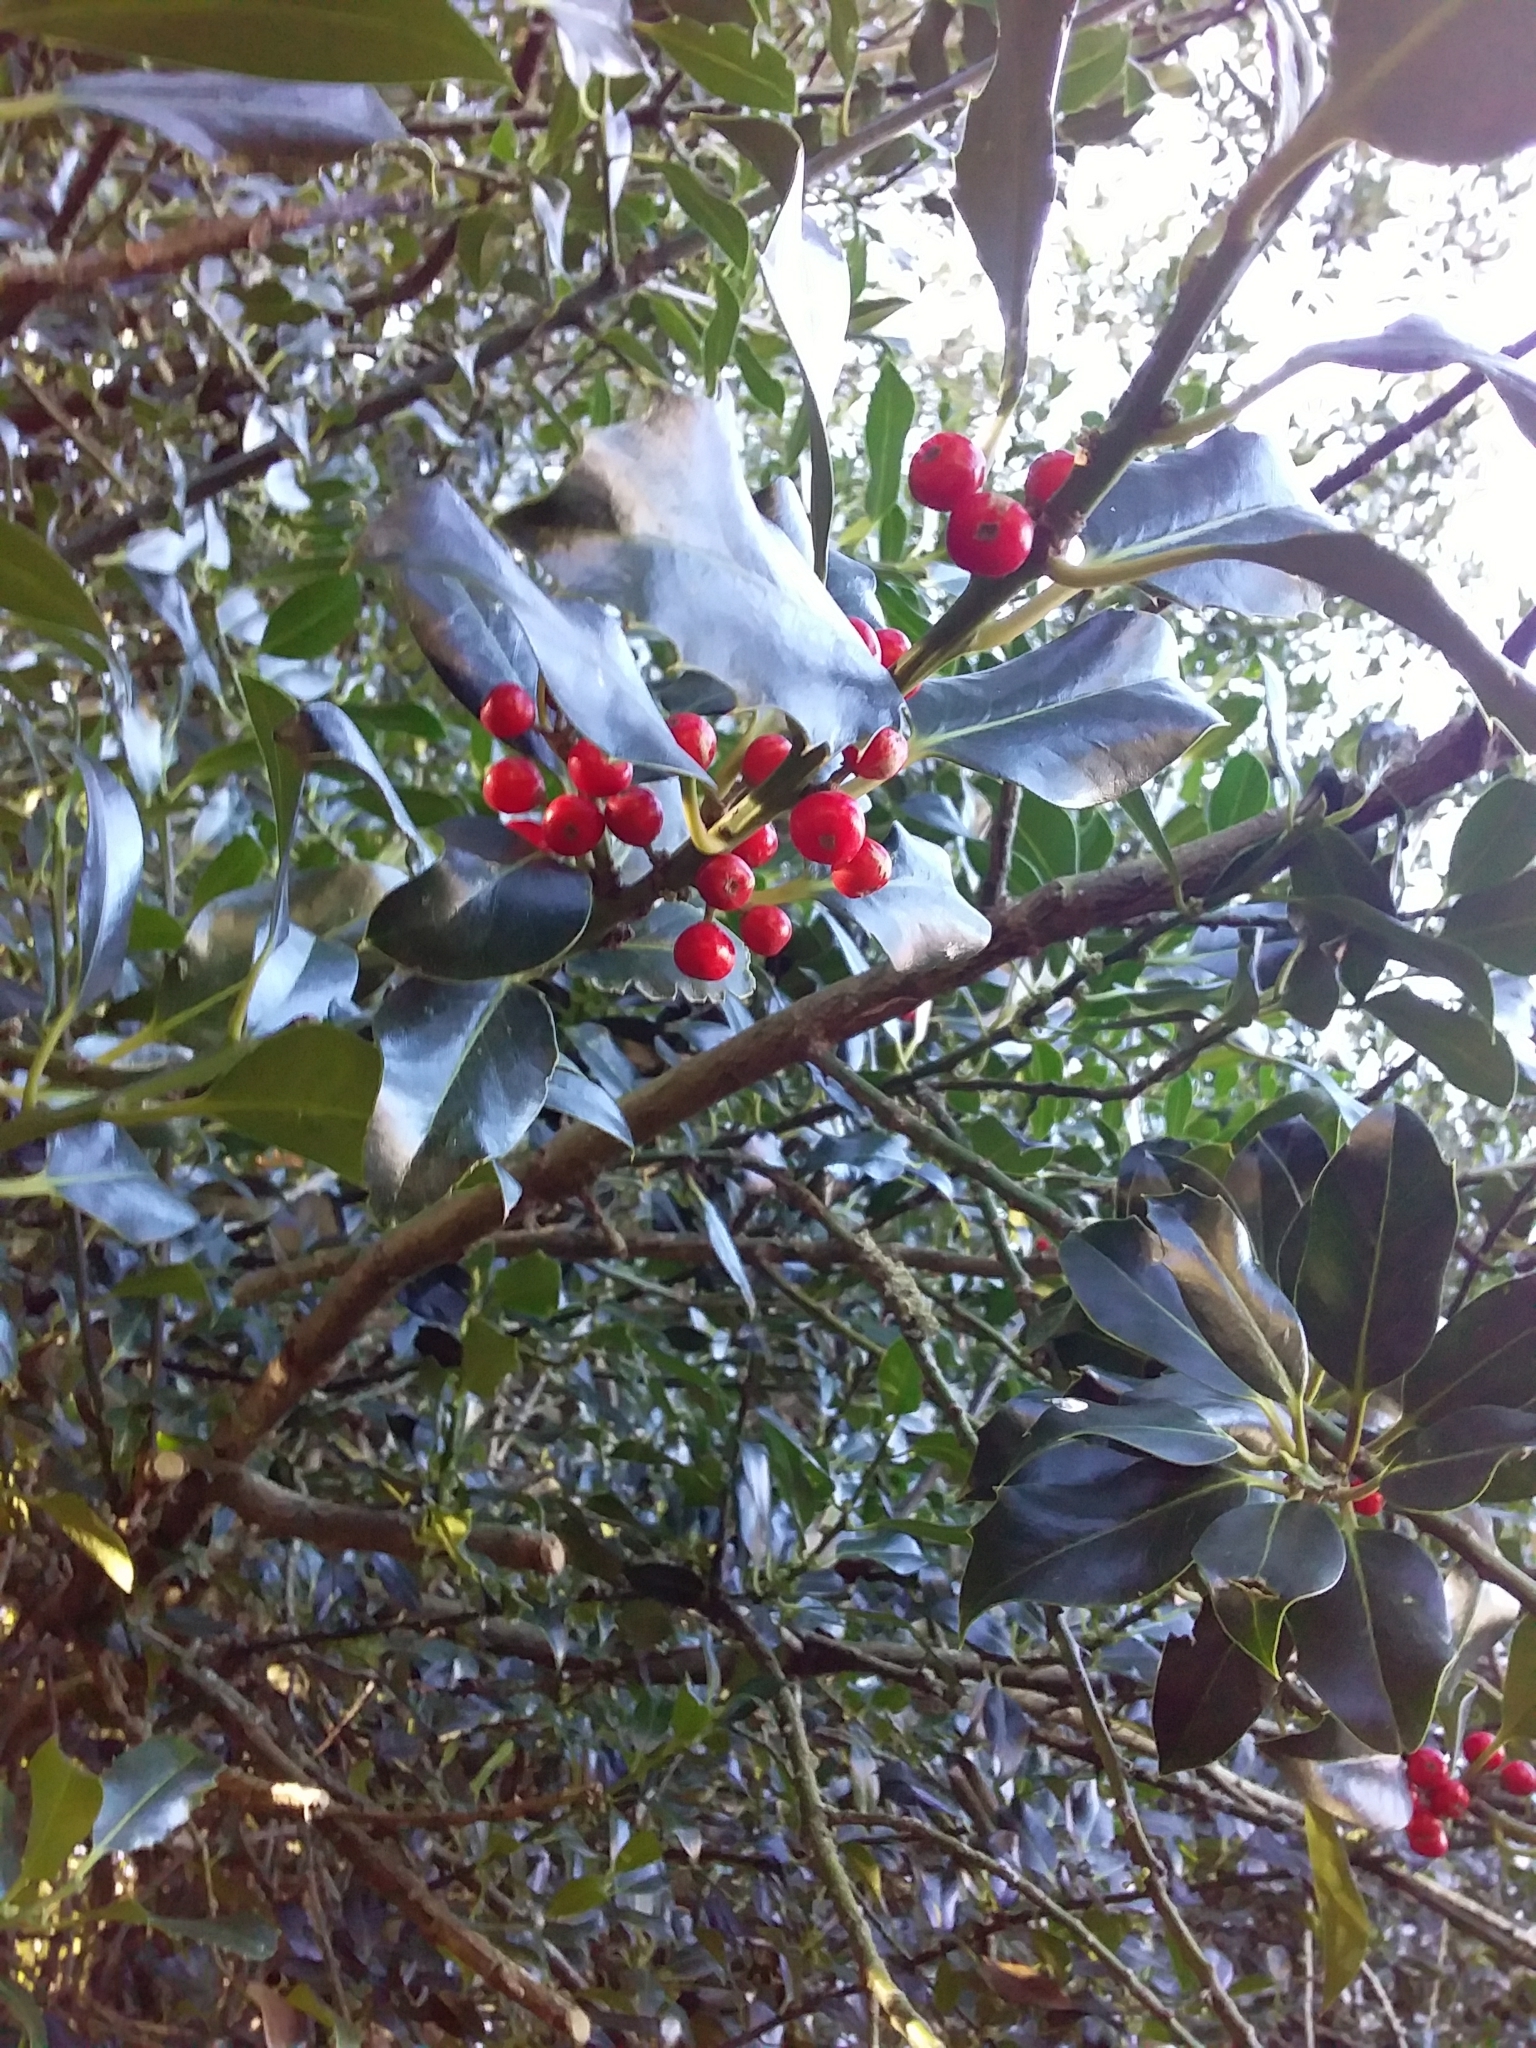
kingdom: Plantae
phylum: Tracheophyta
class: Magnoliopsida
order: Aquifoliales
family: Aquifoliaceae
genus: Ilex
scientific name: Ilex aquifolium
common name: English holly
